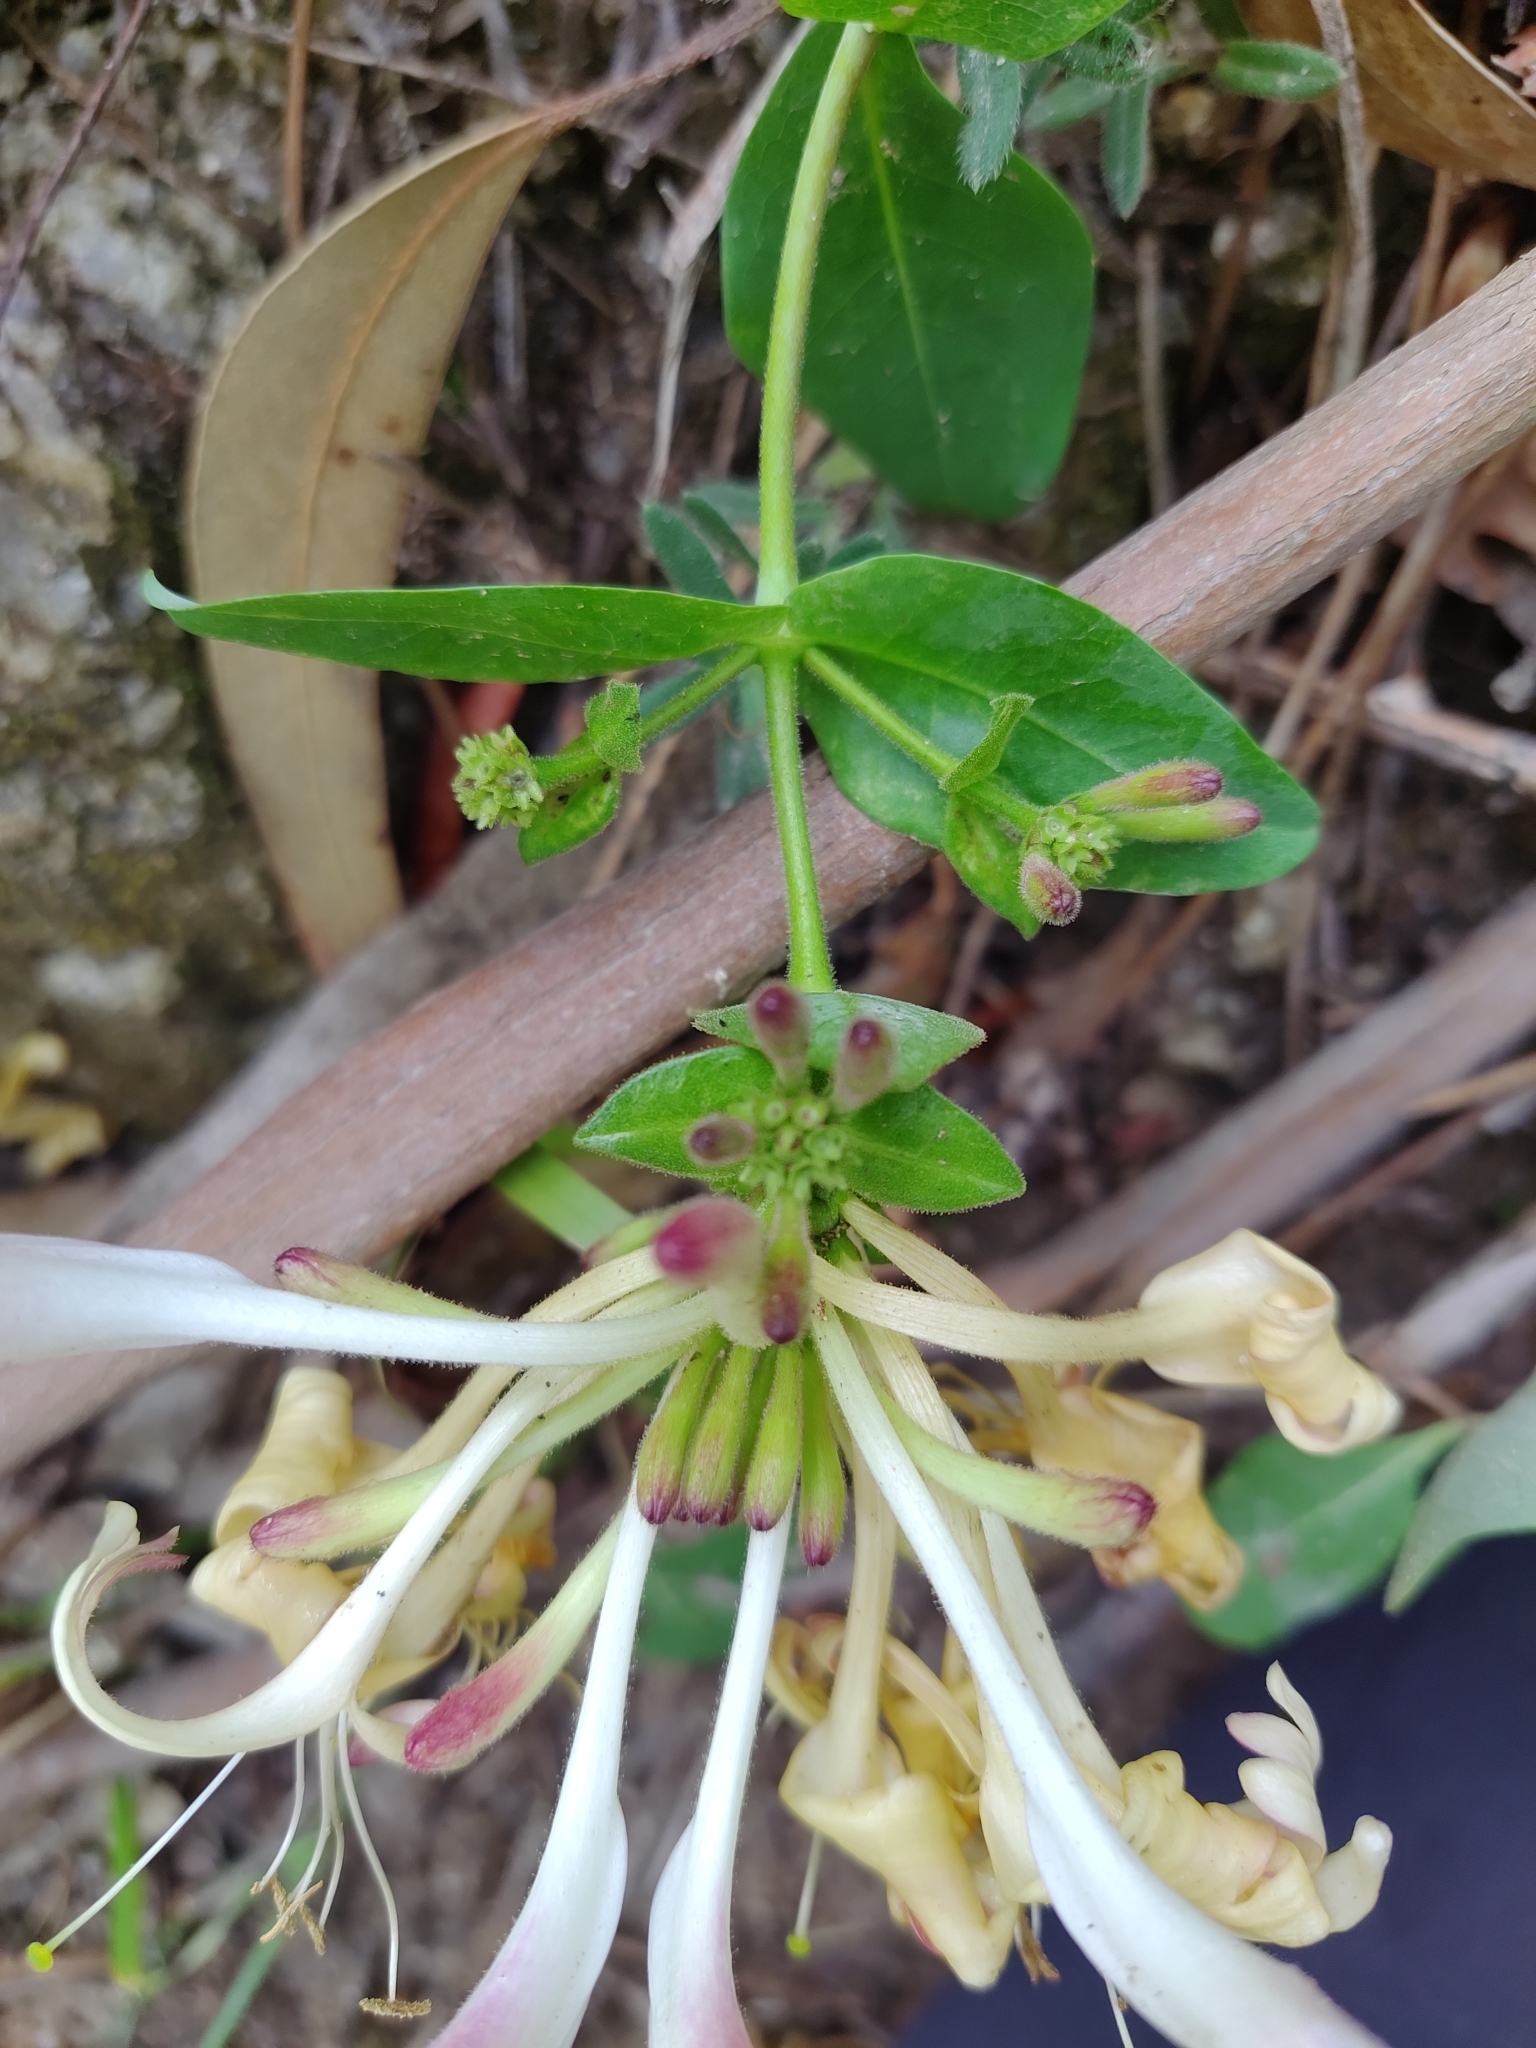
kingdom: Plantae
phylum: Tracheophyta
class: Magnoliopsida
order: Dipsacales
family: Caprifoliaceae
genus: Lonicera
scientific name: Lonicera periclymenum
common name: European honeysuckle
